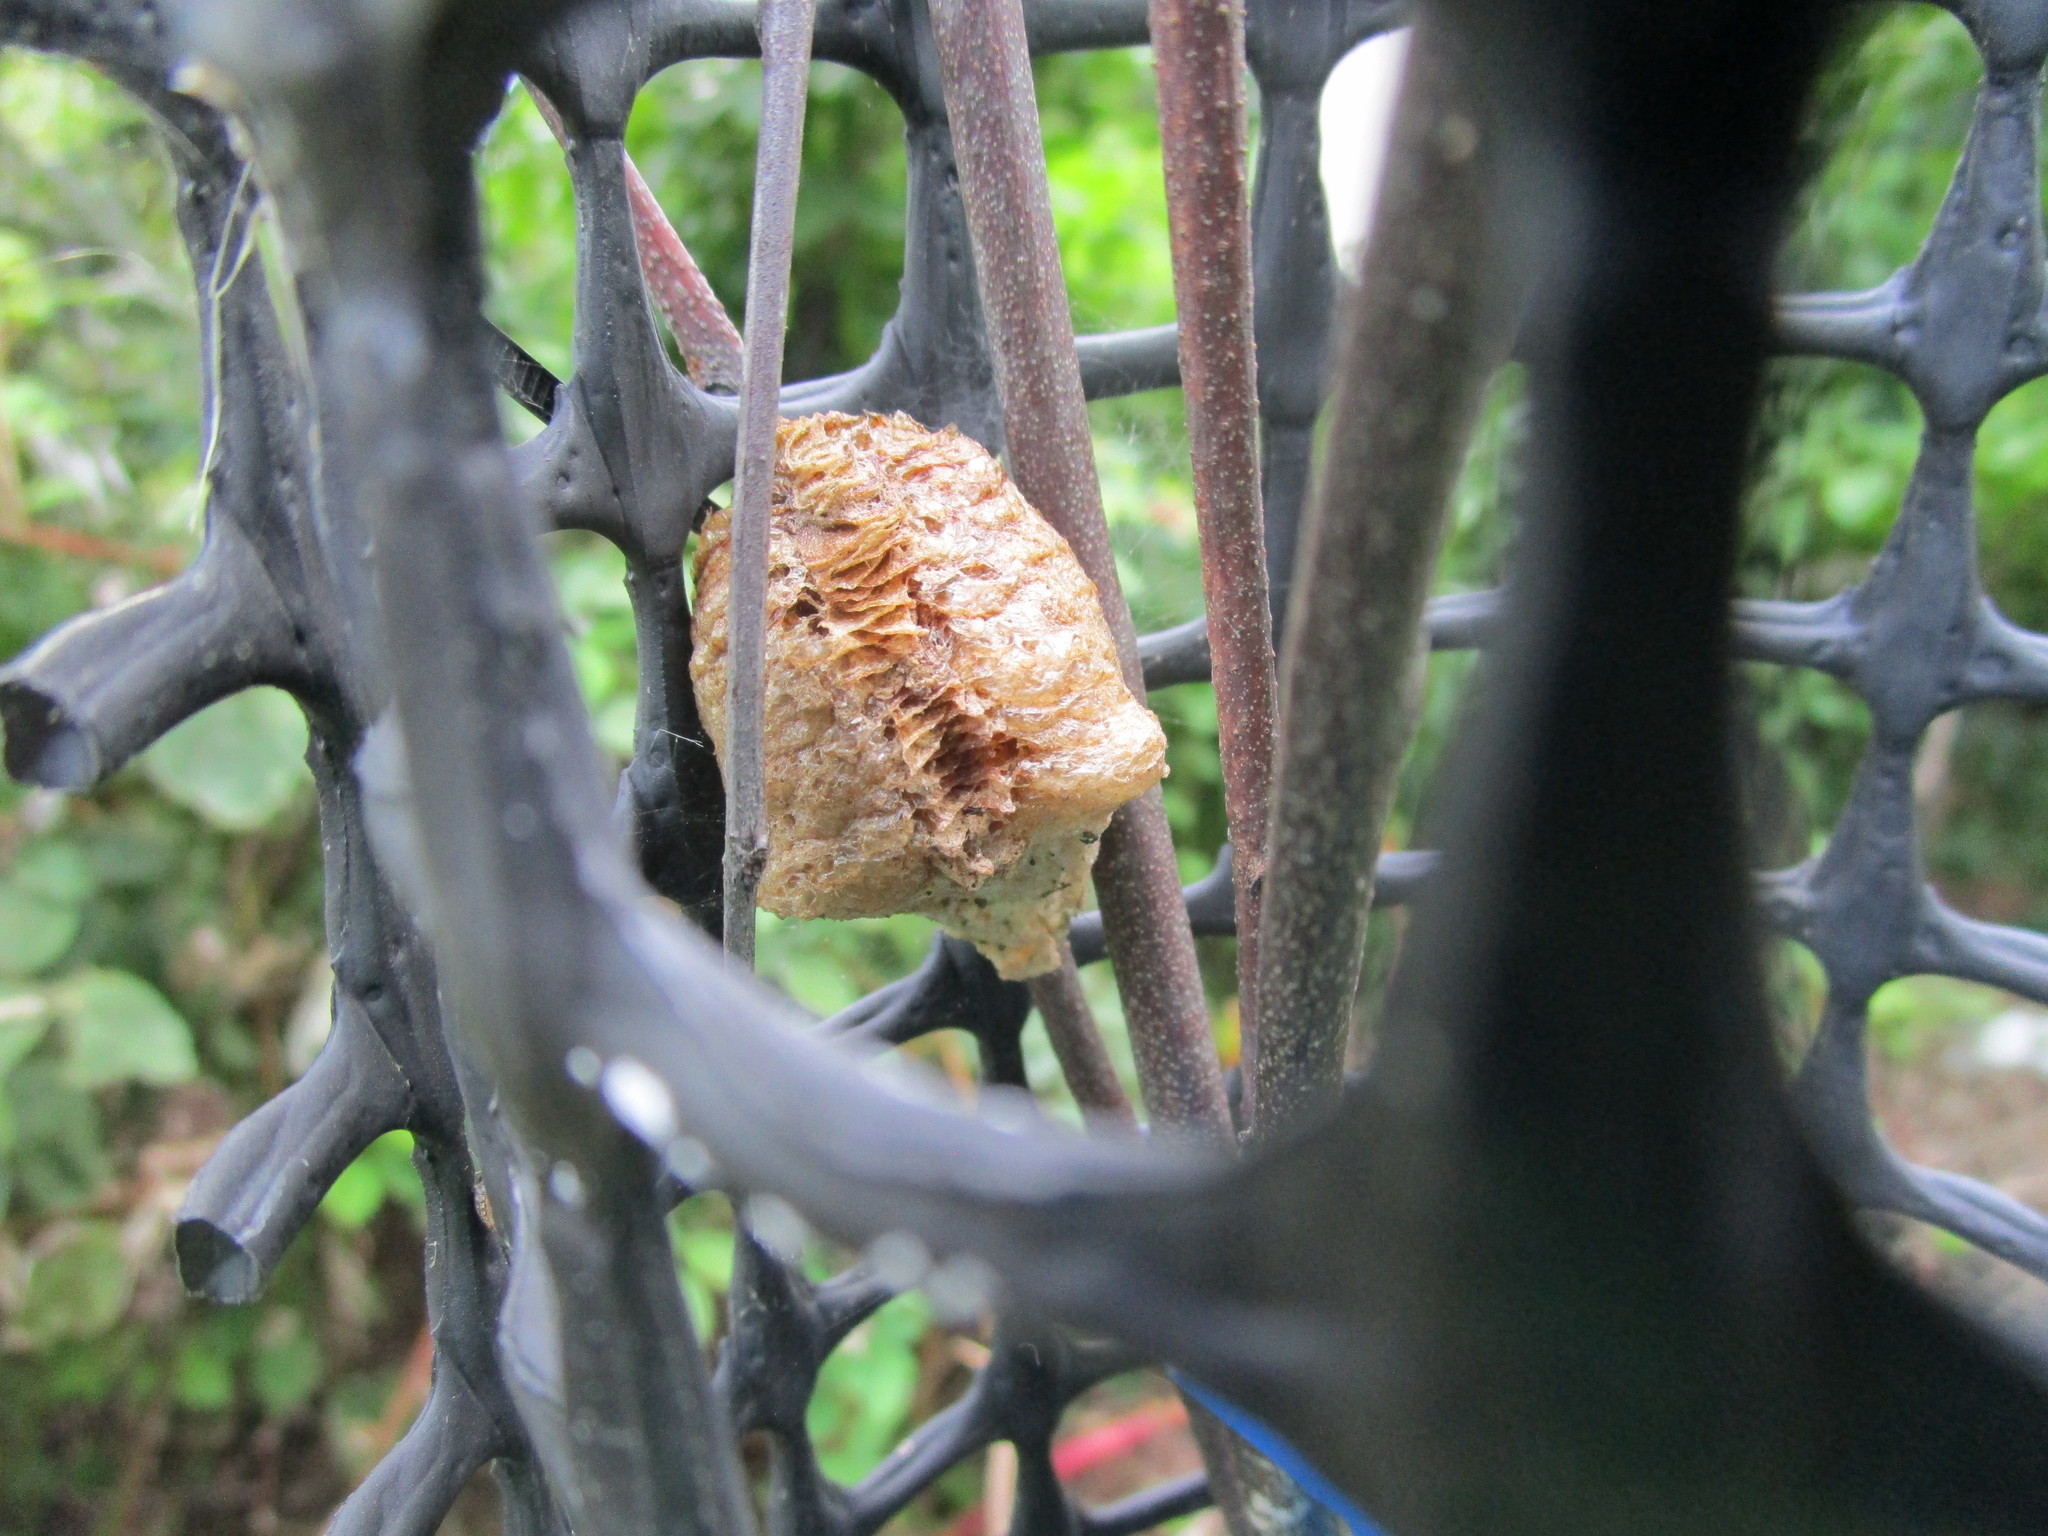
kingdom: Animalia
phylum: Arthropoda
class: Insecta
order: Mantodea
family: Mantidae
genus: Tenodera
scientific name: Tenodera sinensis
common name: Chinese mantis
